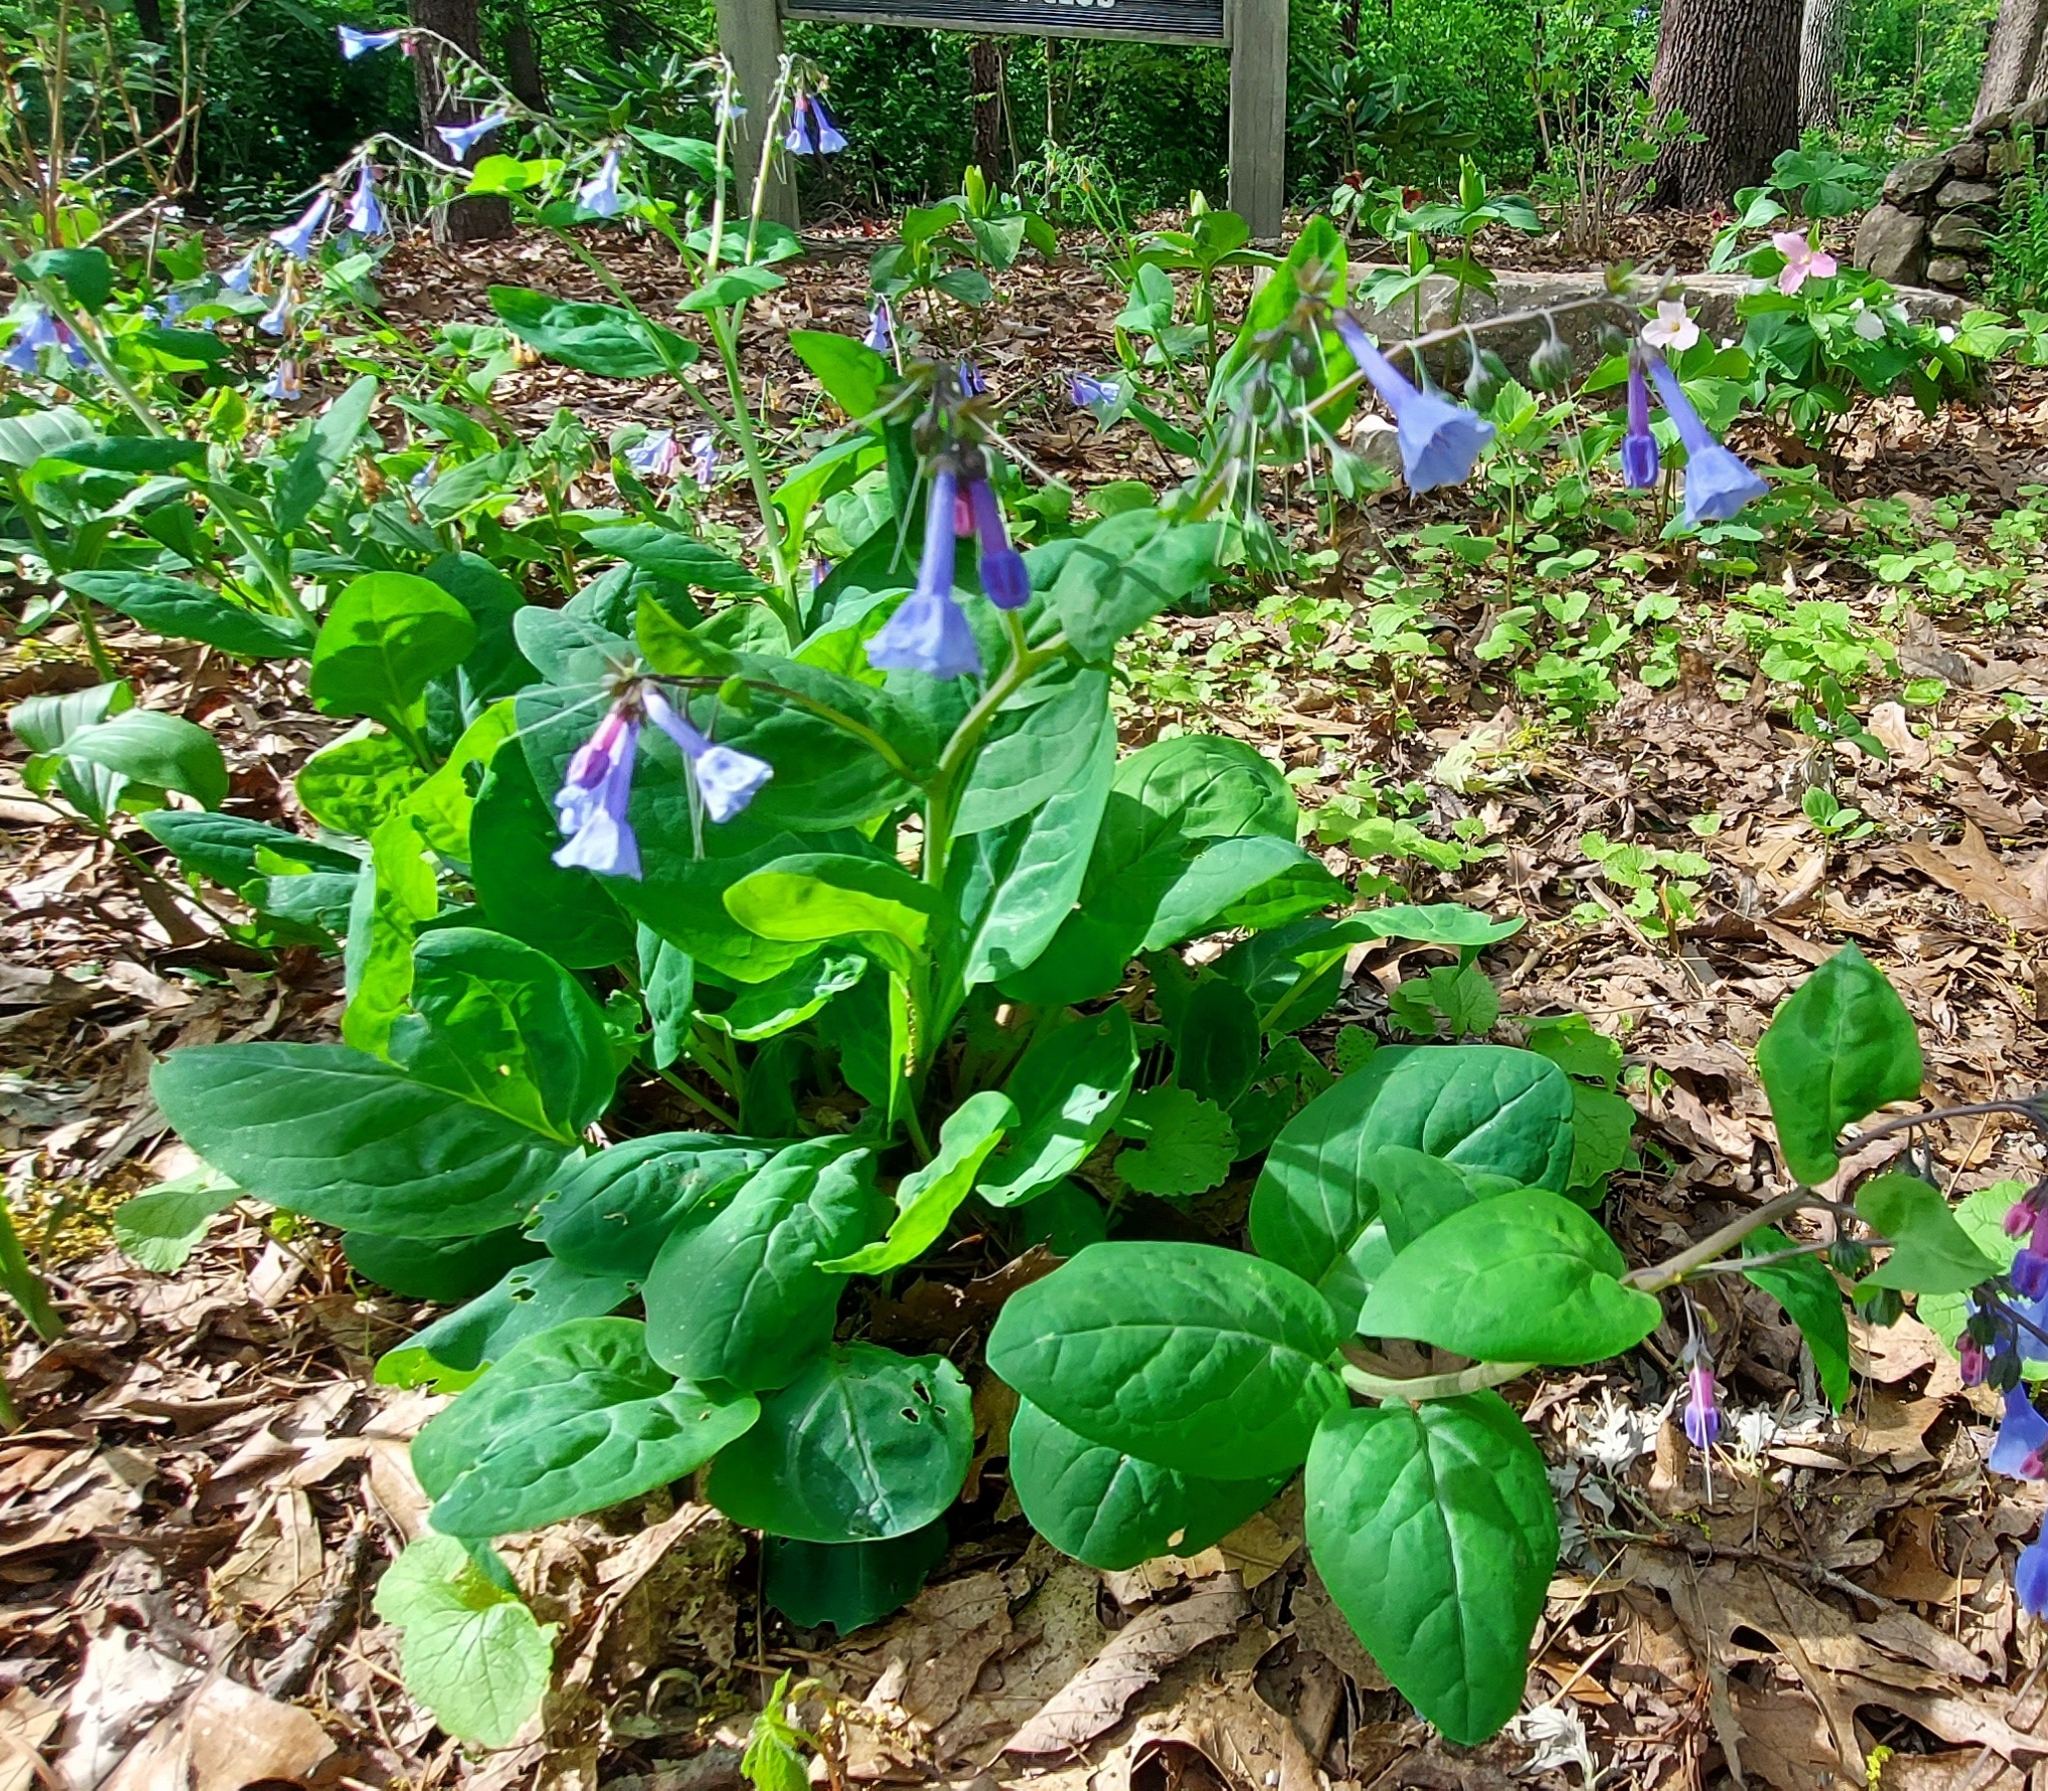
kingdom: Plantae
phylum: Tracheophyta
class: Magnoliopsida
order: Boraginales
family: Boraginaceae
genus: Mertensia
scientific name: Mertensia virginica
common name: Virginia bluebells
